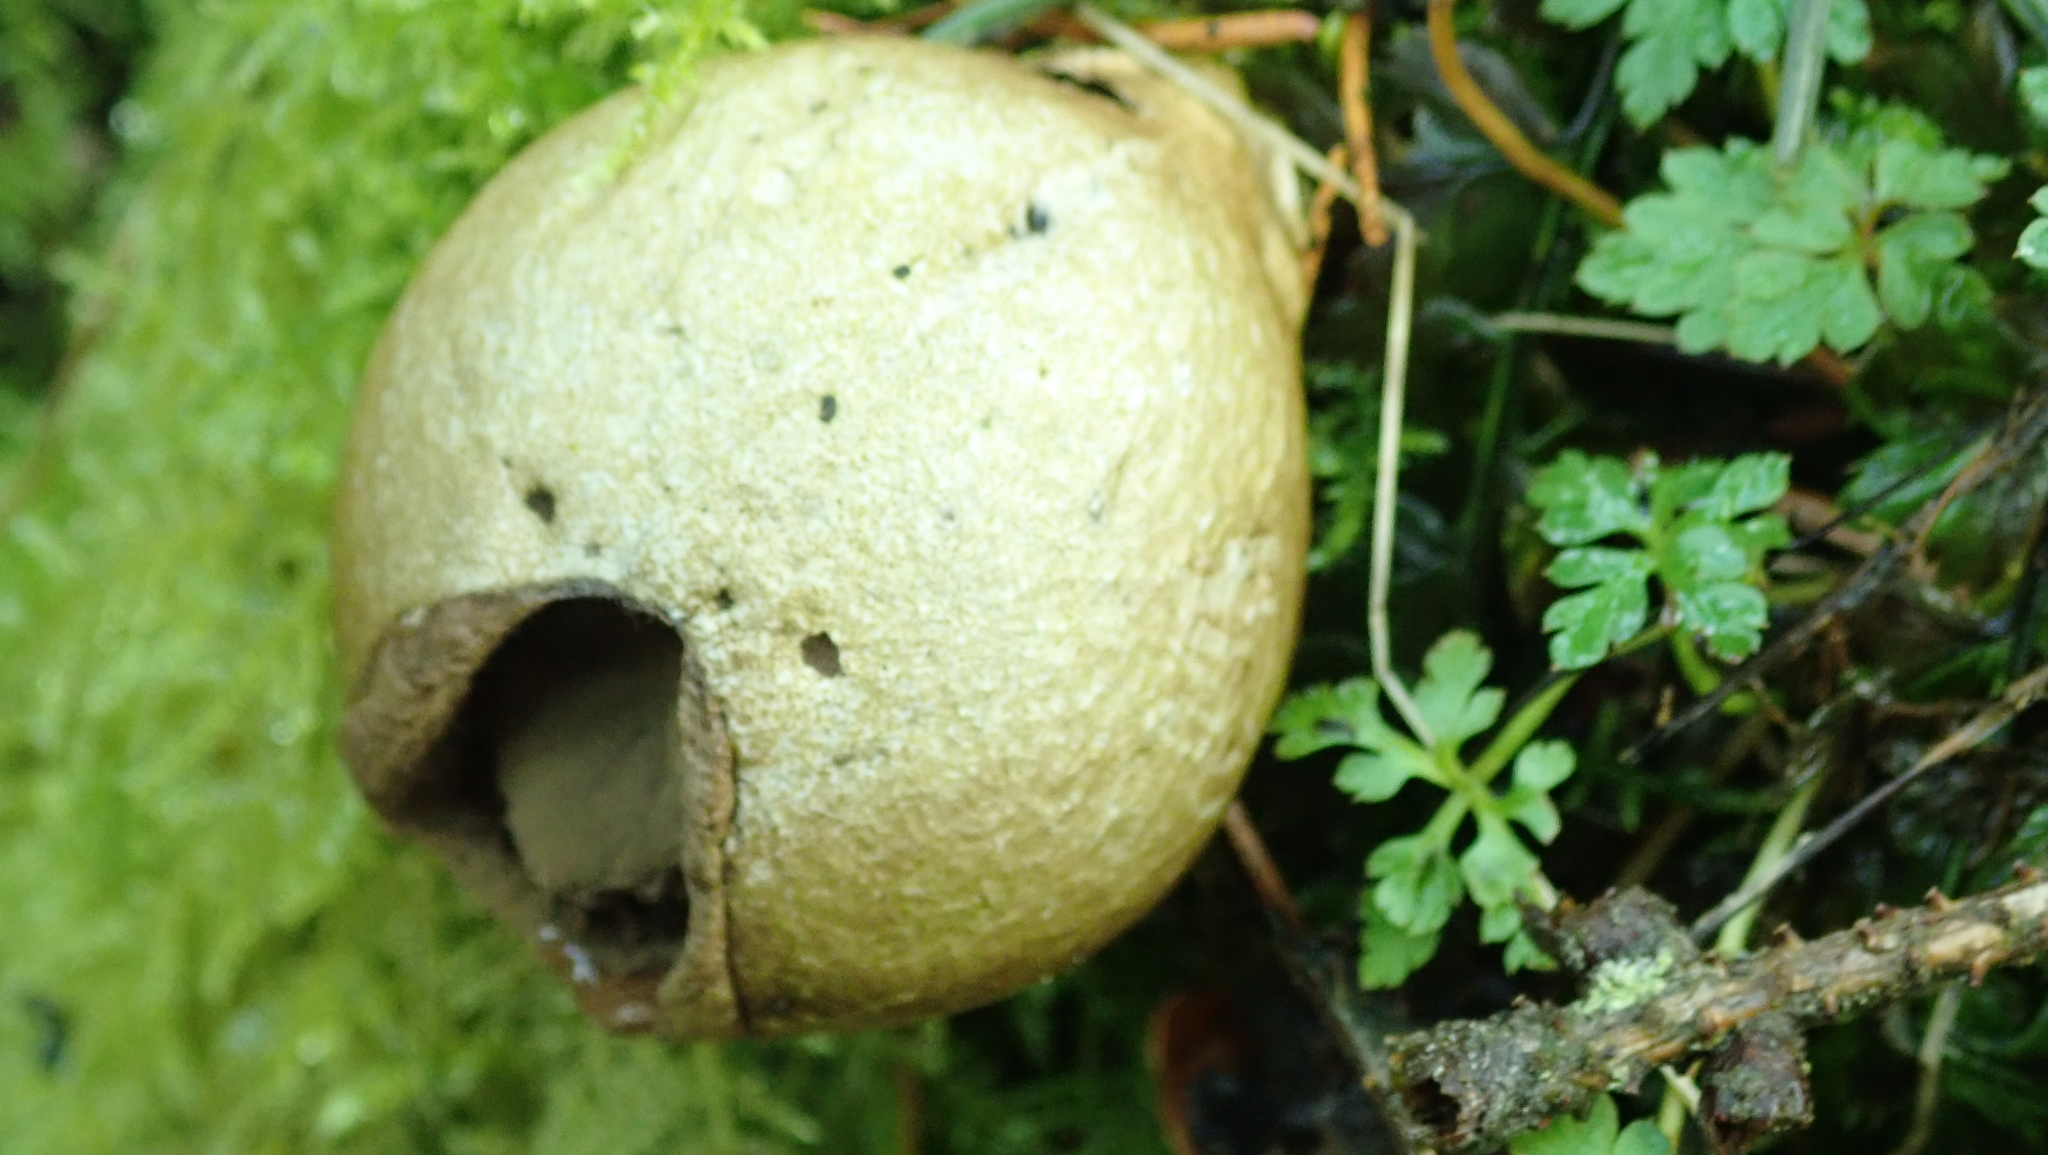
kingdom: Fungi
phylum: Basidiomycota
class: Agaricomycetes
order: Agaricales
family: Lycoperdaceae
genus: Apioperdon
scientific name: Apioperdon pyriforme
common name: Pear-shaped puffball
